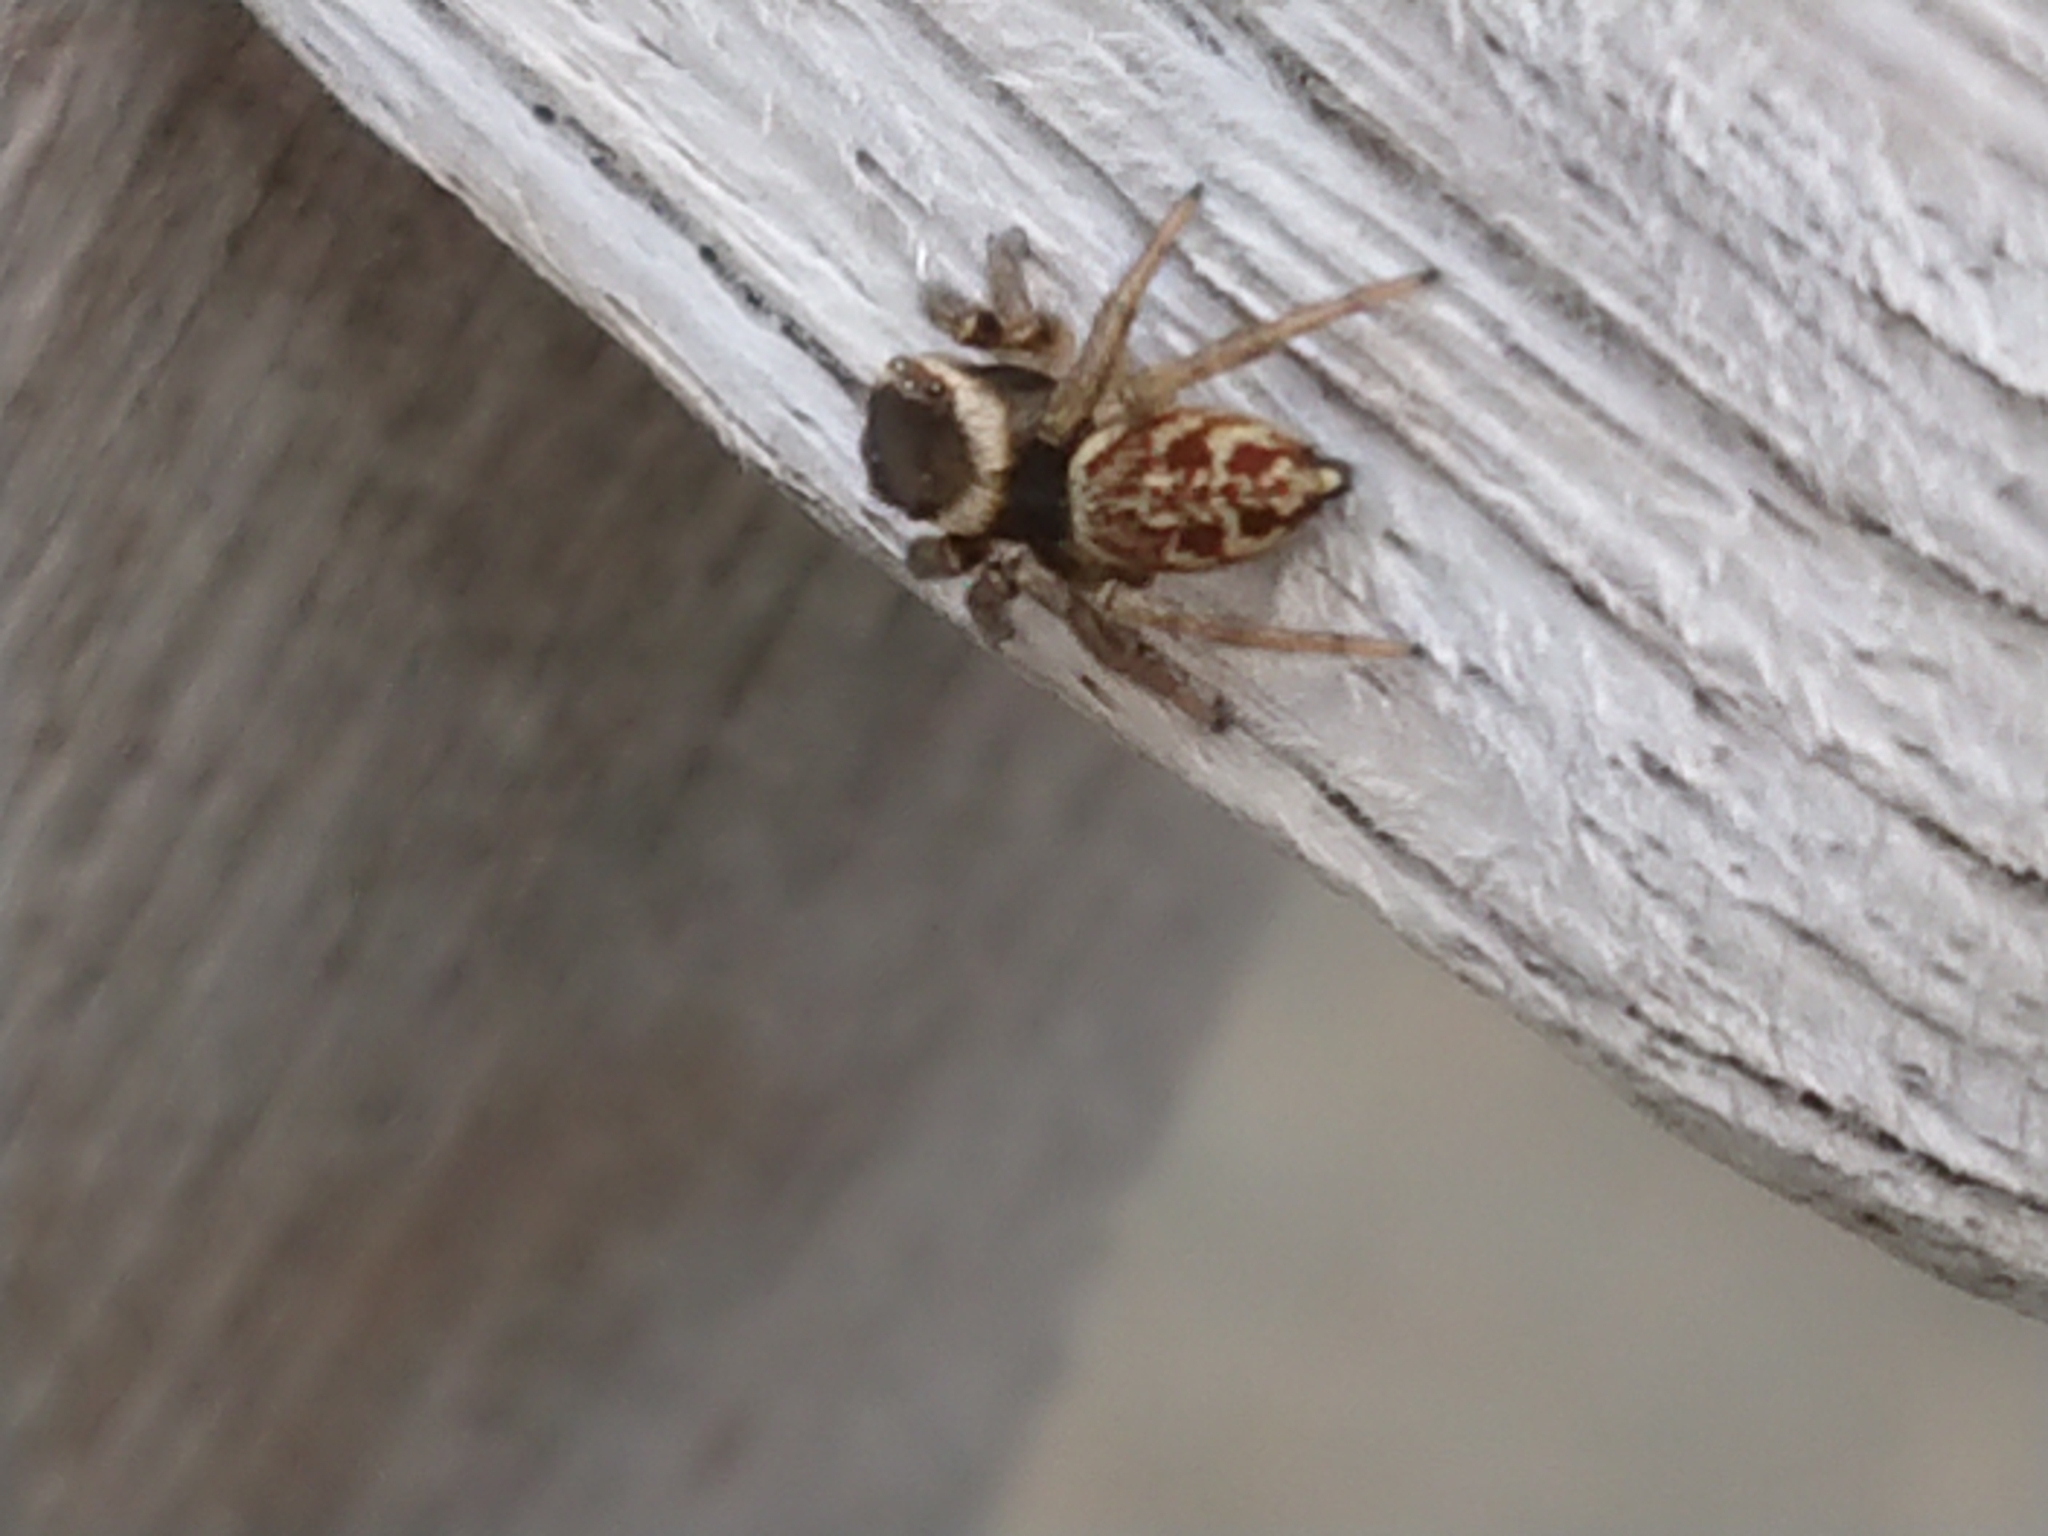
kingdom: Animalia
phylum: Arthropoda
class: Arachnida
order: Araneae
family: Salticidae
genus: Maratus
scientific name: Maratus griseus
